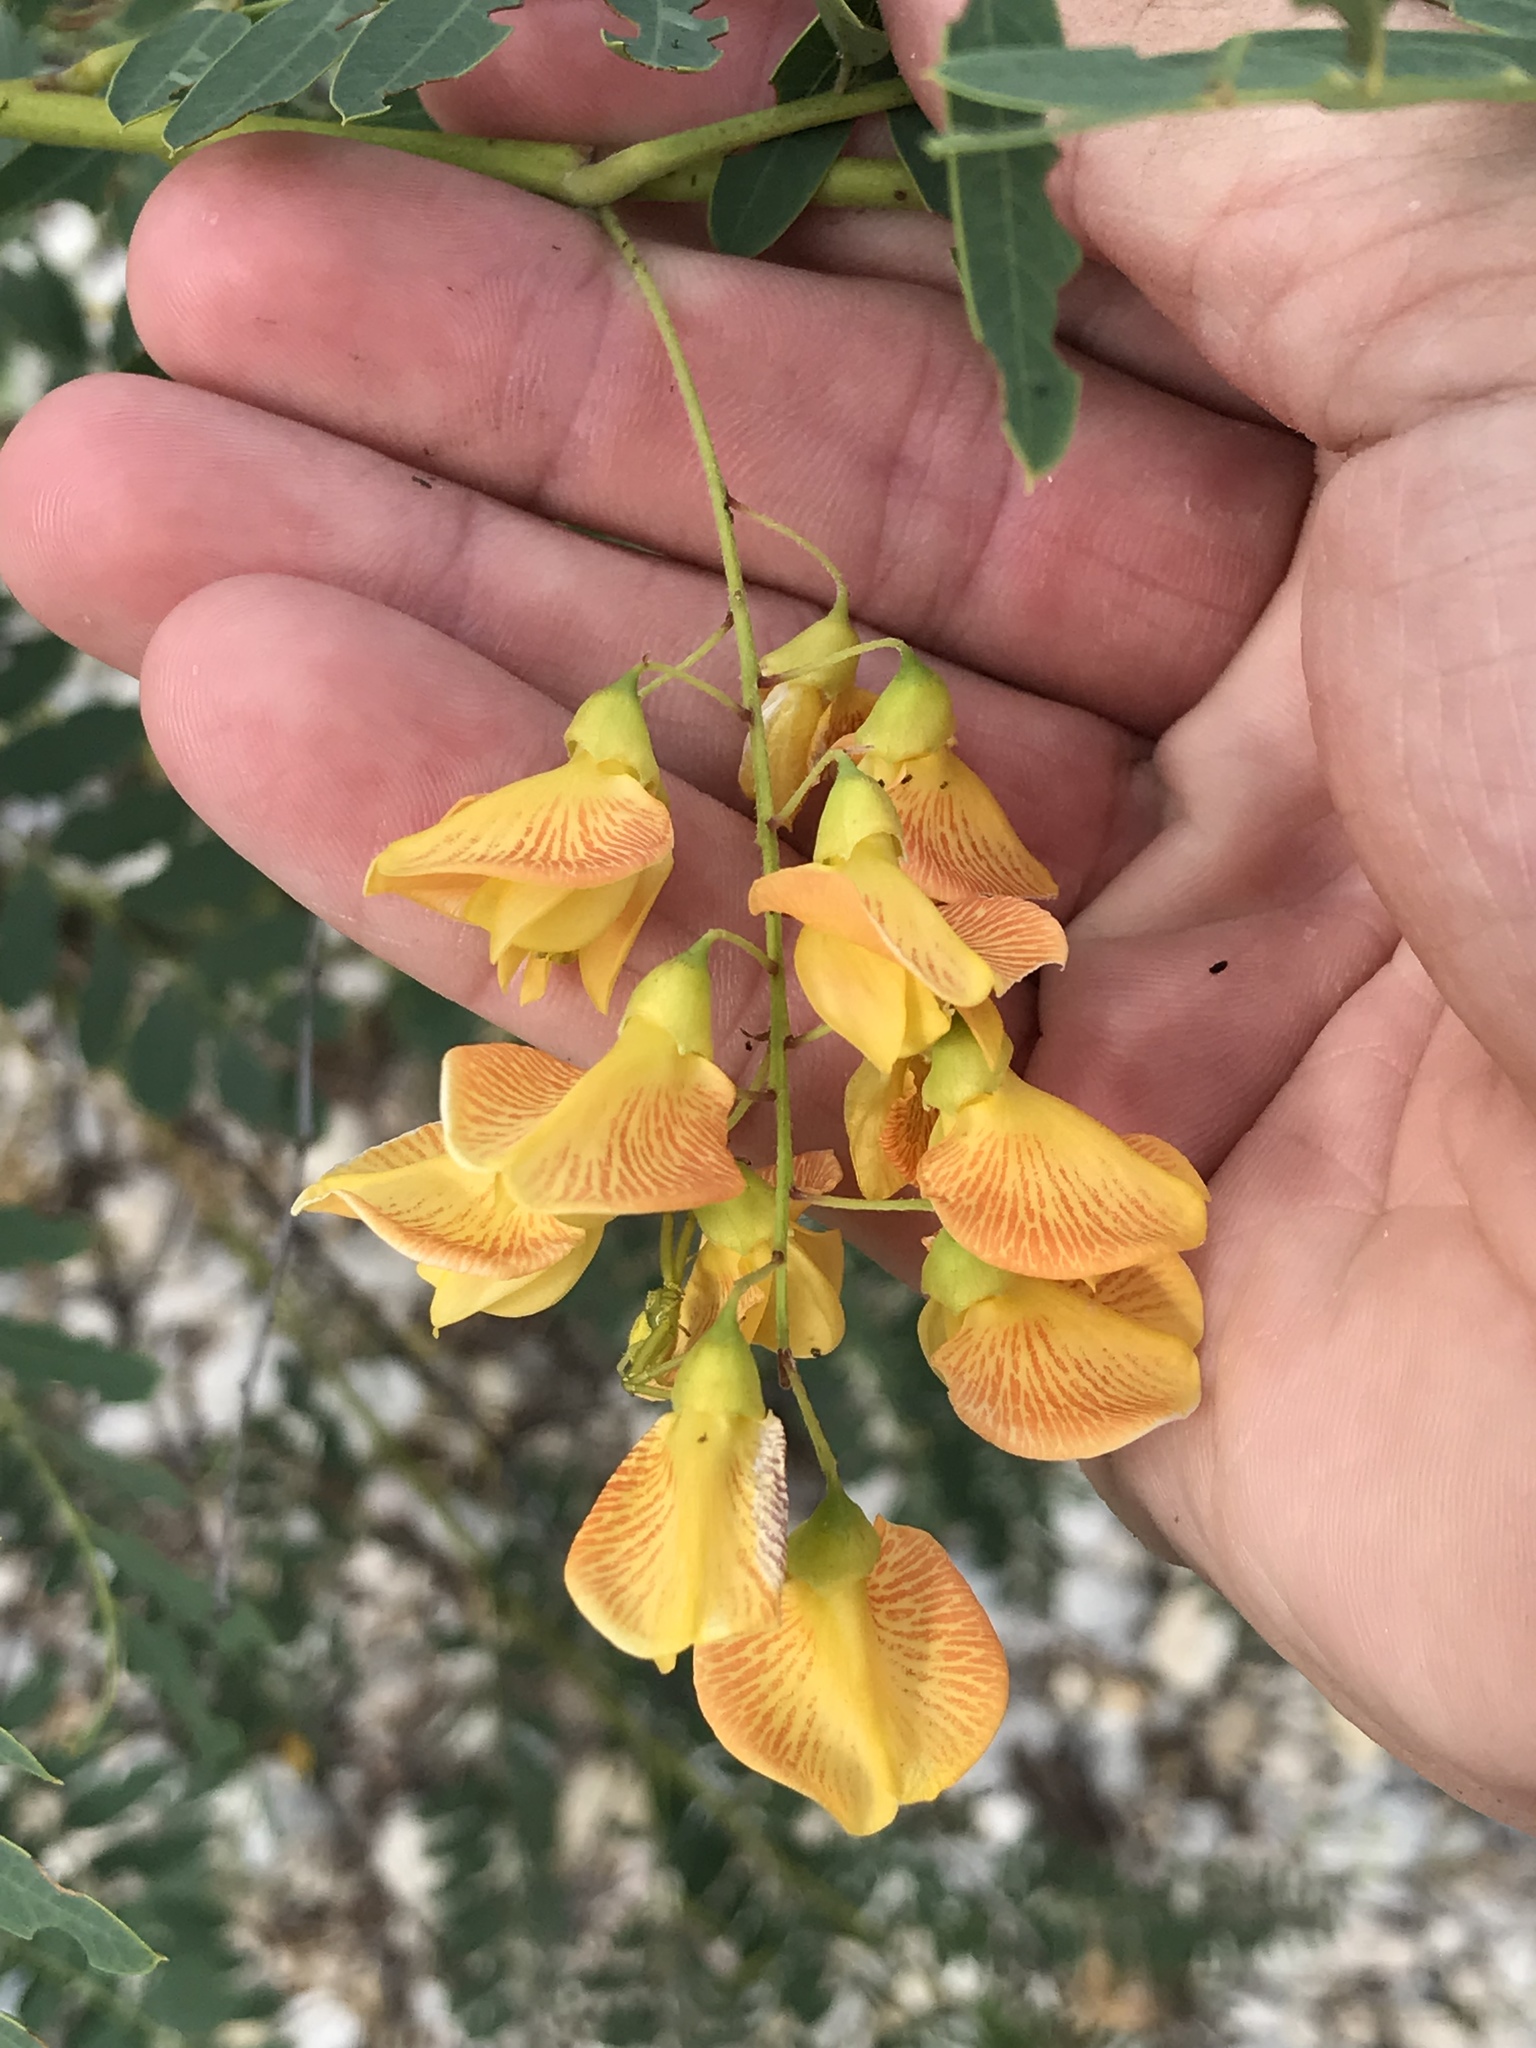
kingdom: Plantae
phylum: Tracheophyta
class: Magnoliopsida
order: Fabales
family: Fabaceae
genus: Sesbania
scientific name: Sesbania drummondii
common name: Poison-bean
